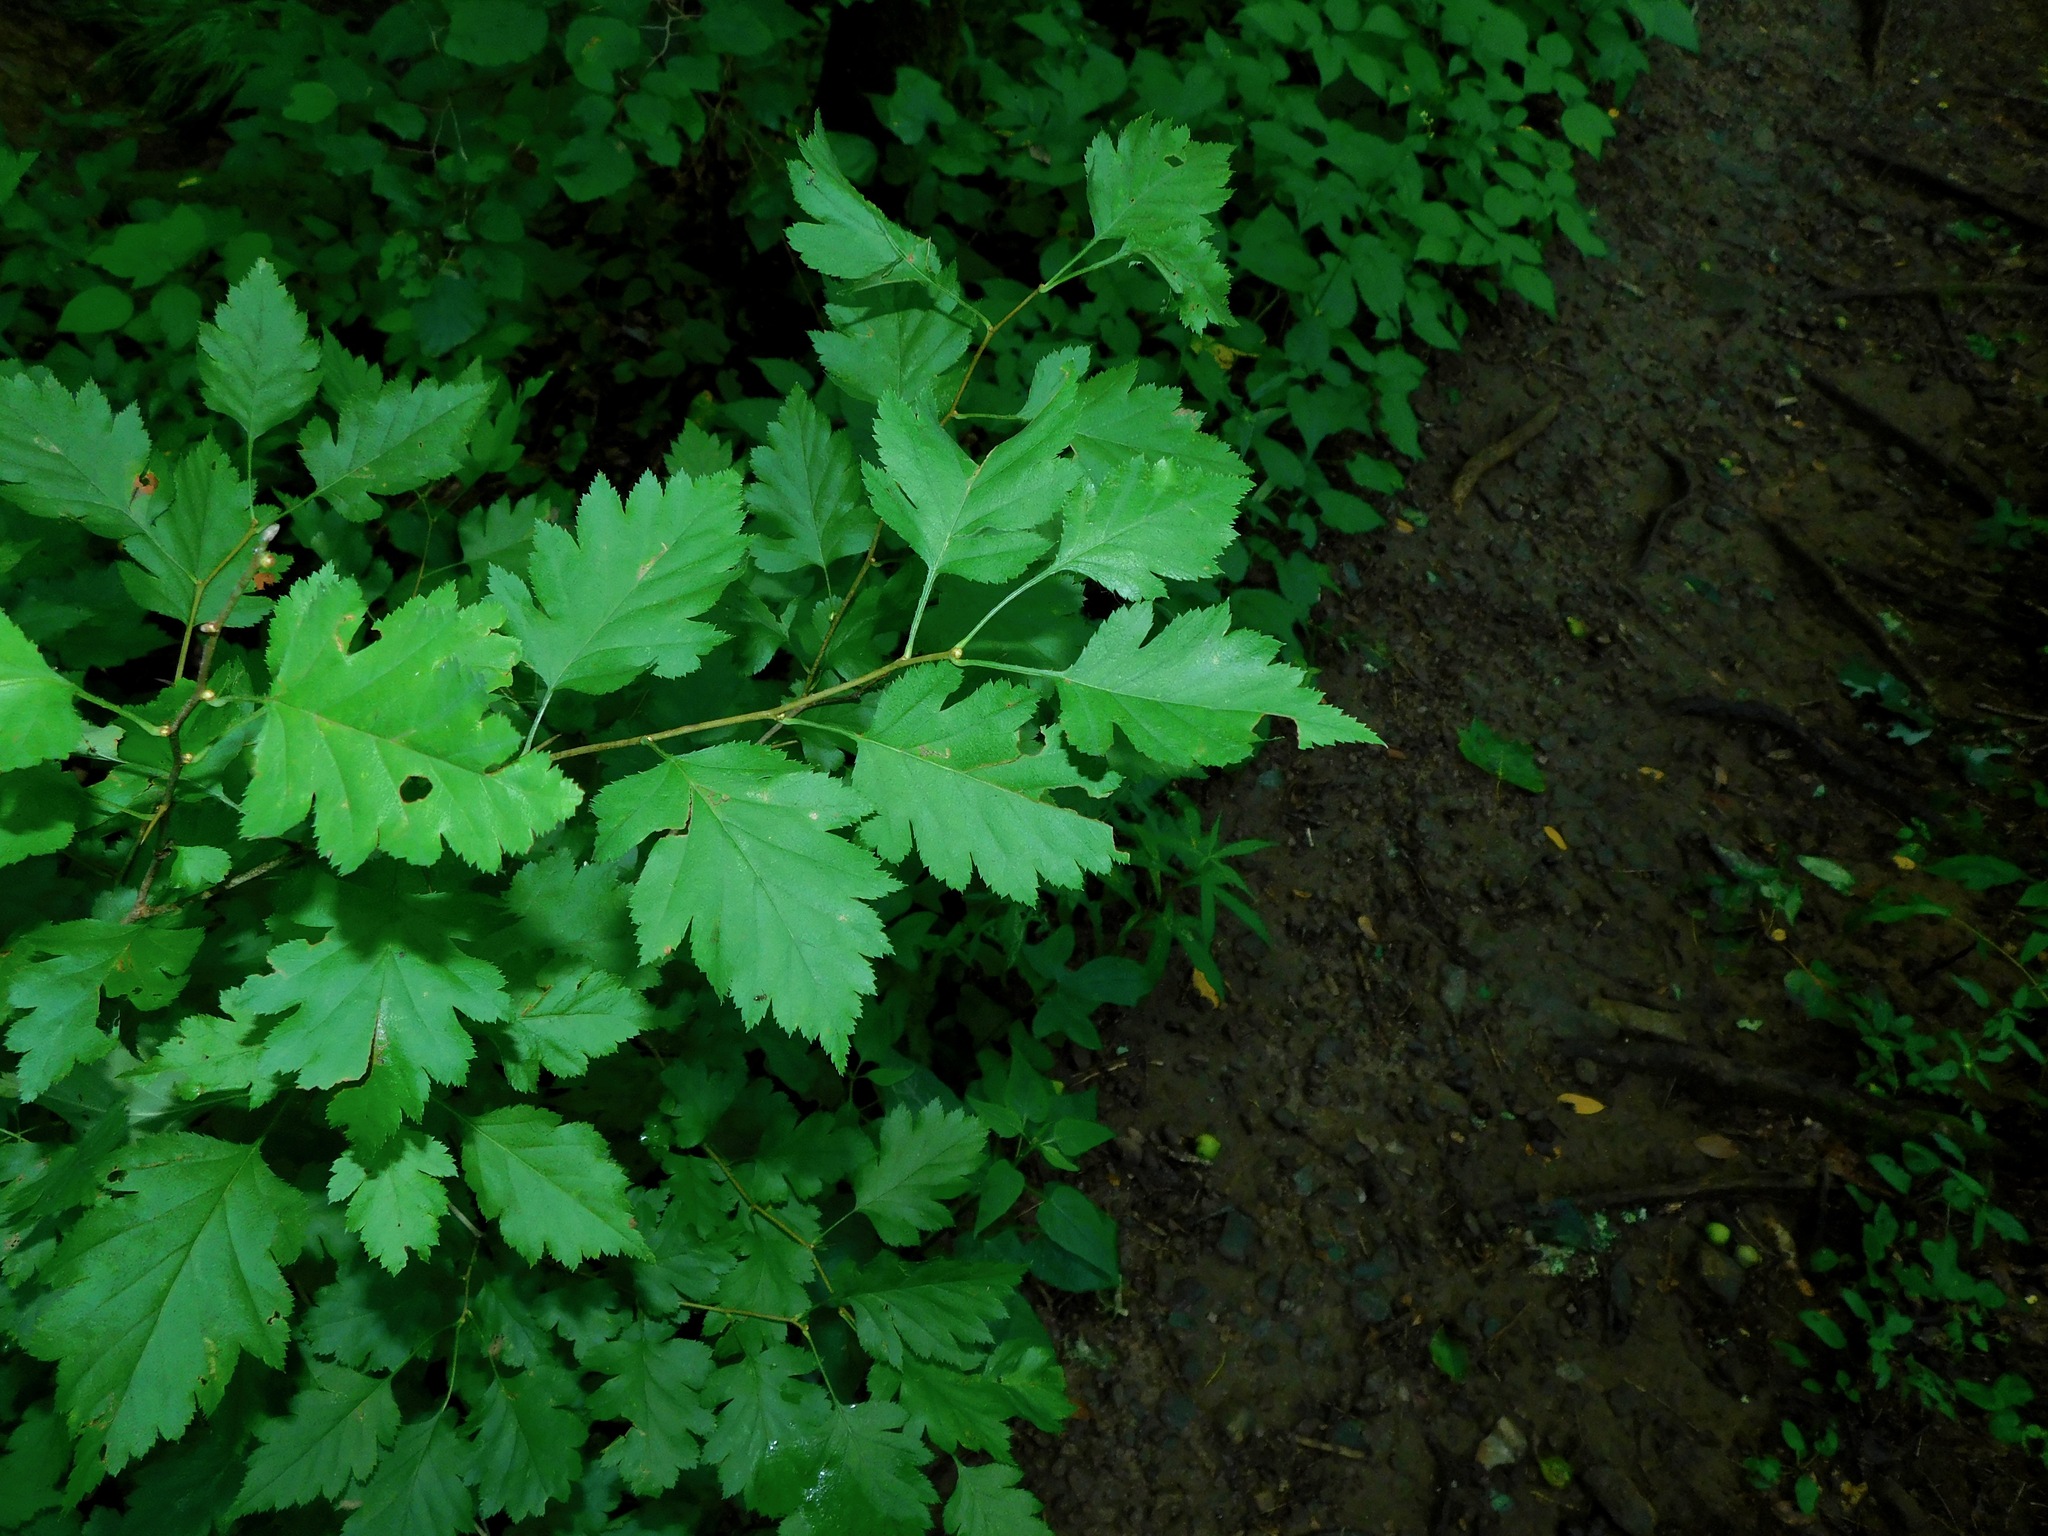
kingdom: Plantae
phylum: Tracheophyta
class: Magnoliopsida
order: Rosales
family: Rosaceae
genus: Crataegus
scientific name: Crataegus phaenopyrum
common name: Washington hawthorn
